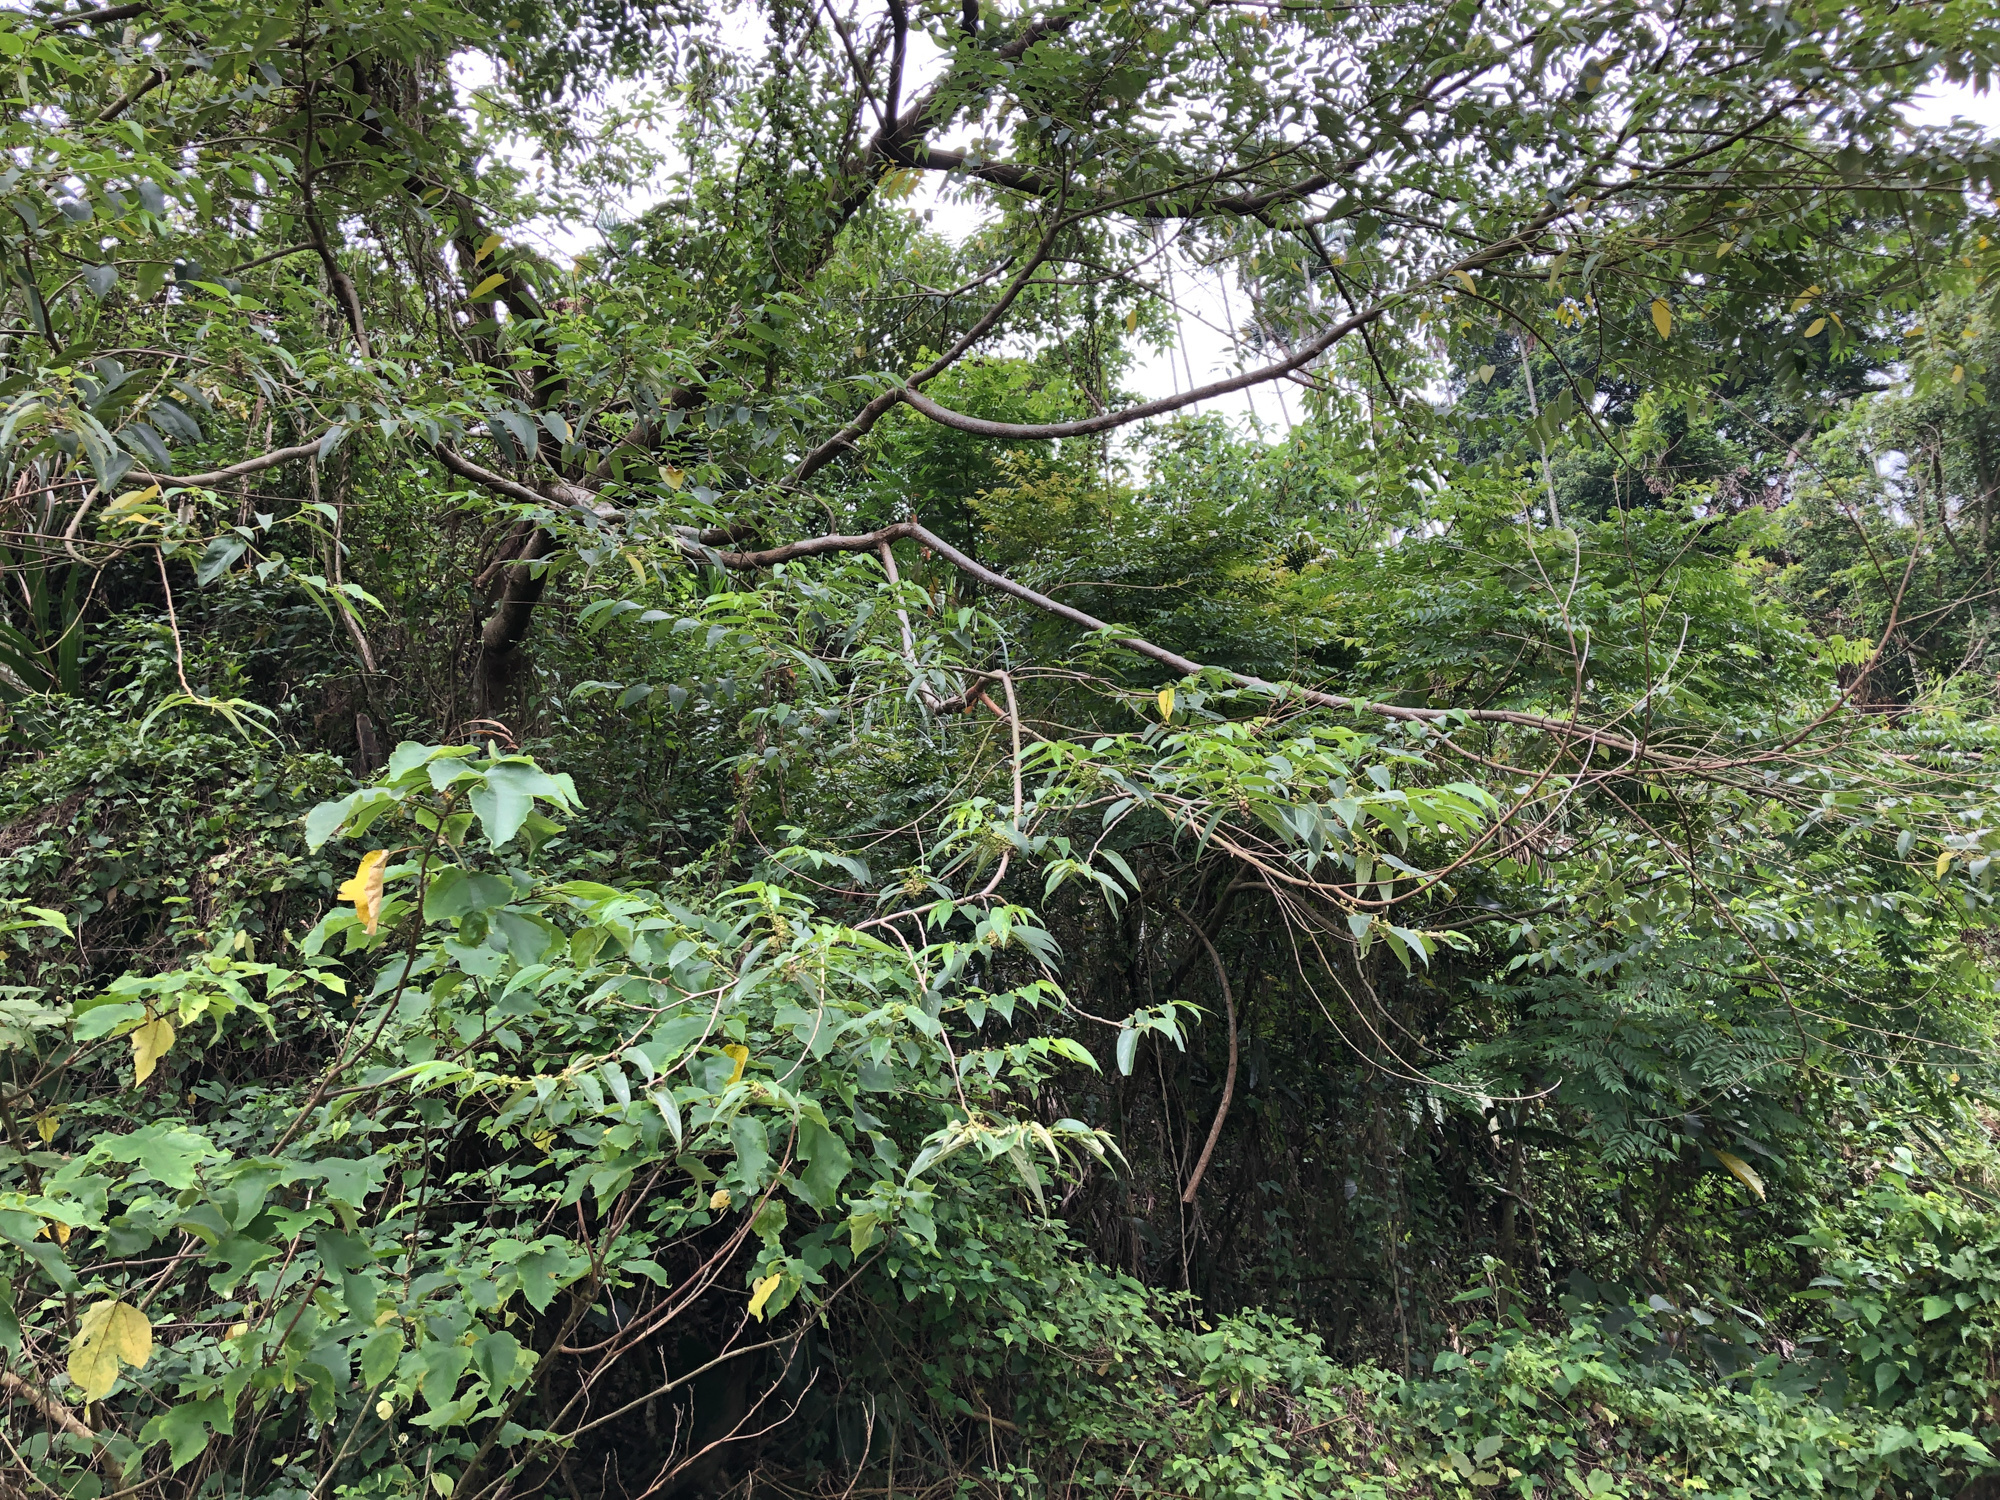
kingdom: Plantae
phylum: Tracheophyta
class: Magnoliopsida
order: Rosales
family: Cannabaceae
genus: Trema
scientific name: Trema orientale
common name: Indian charcoal tree
